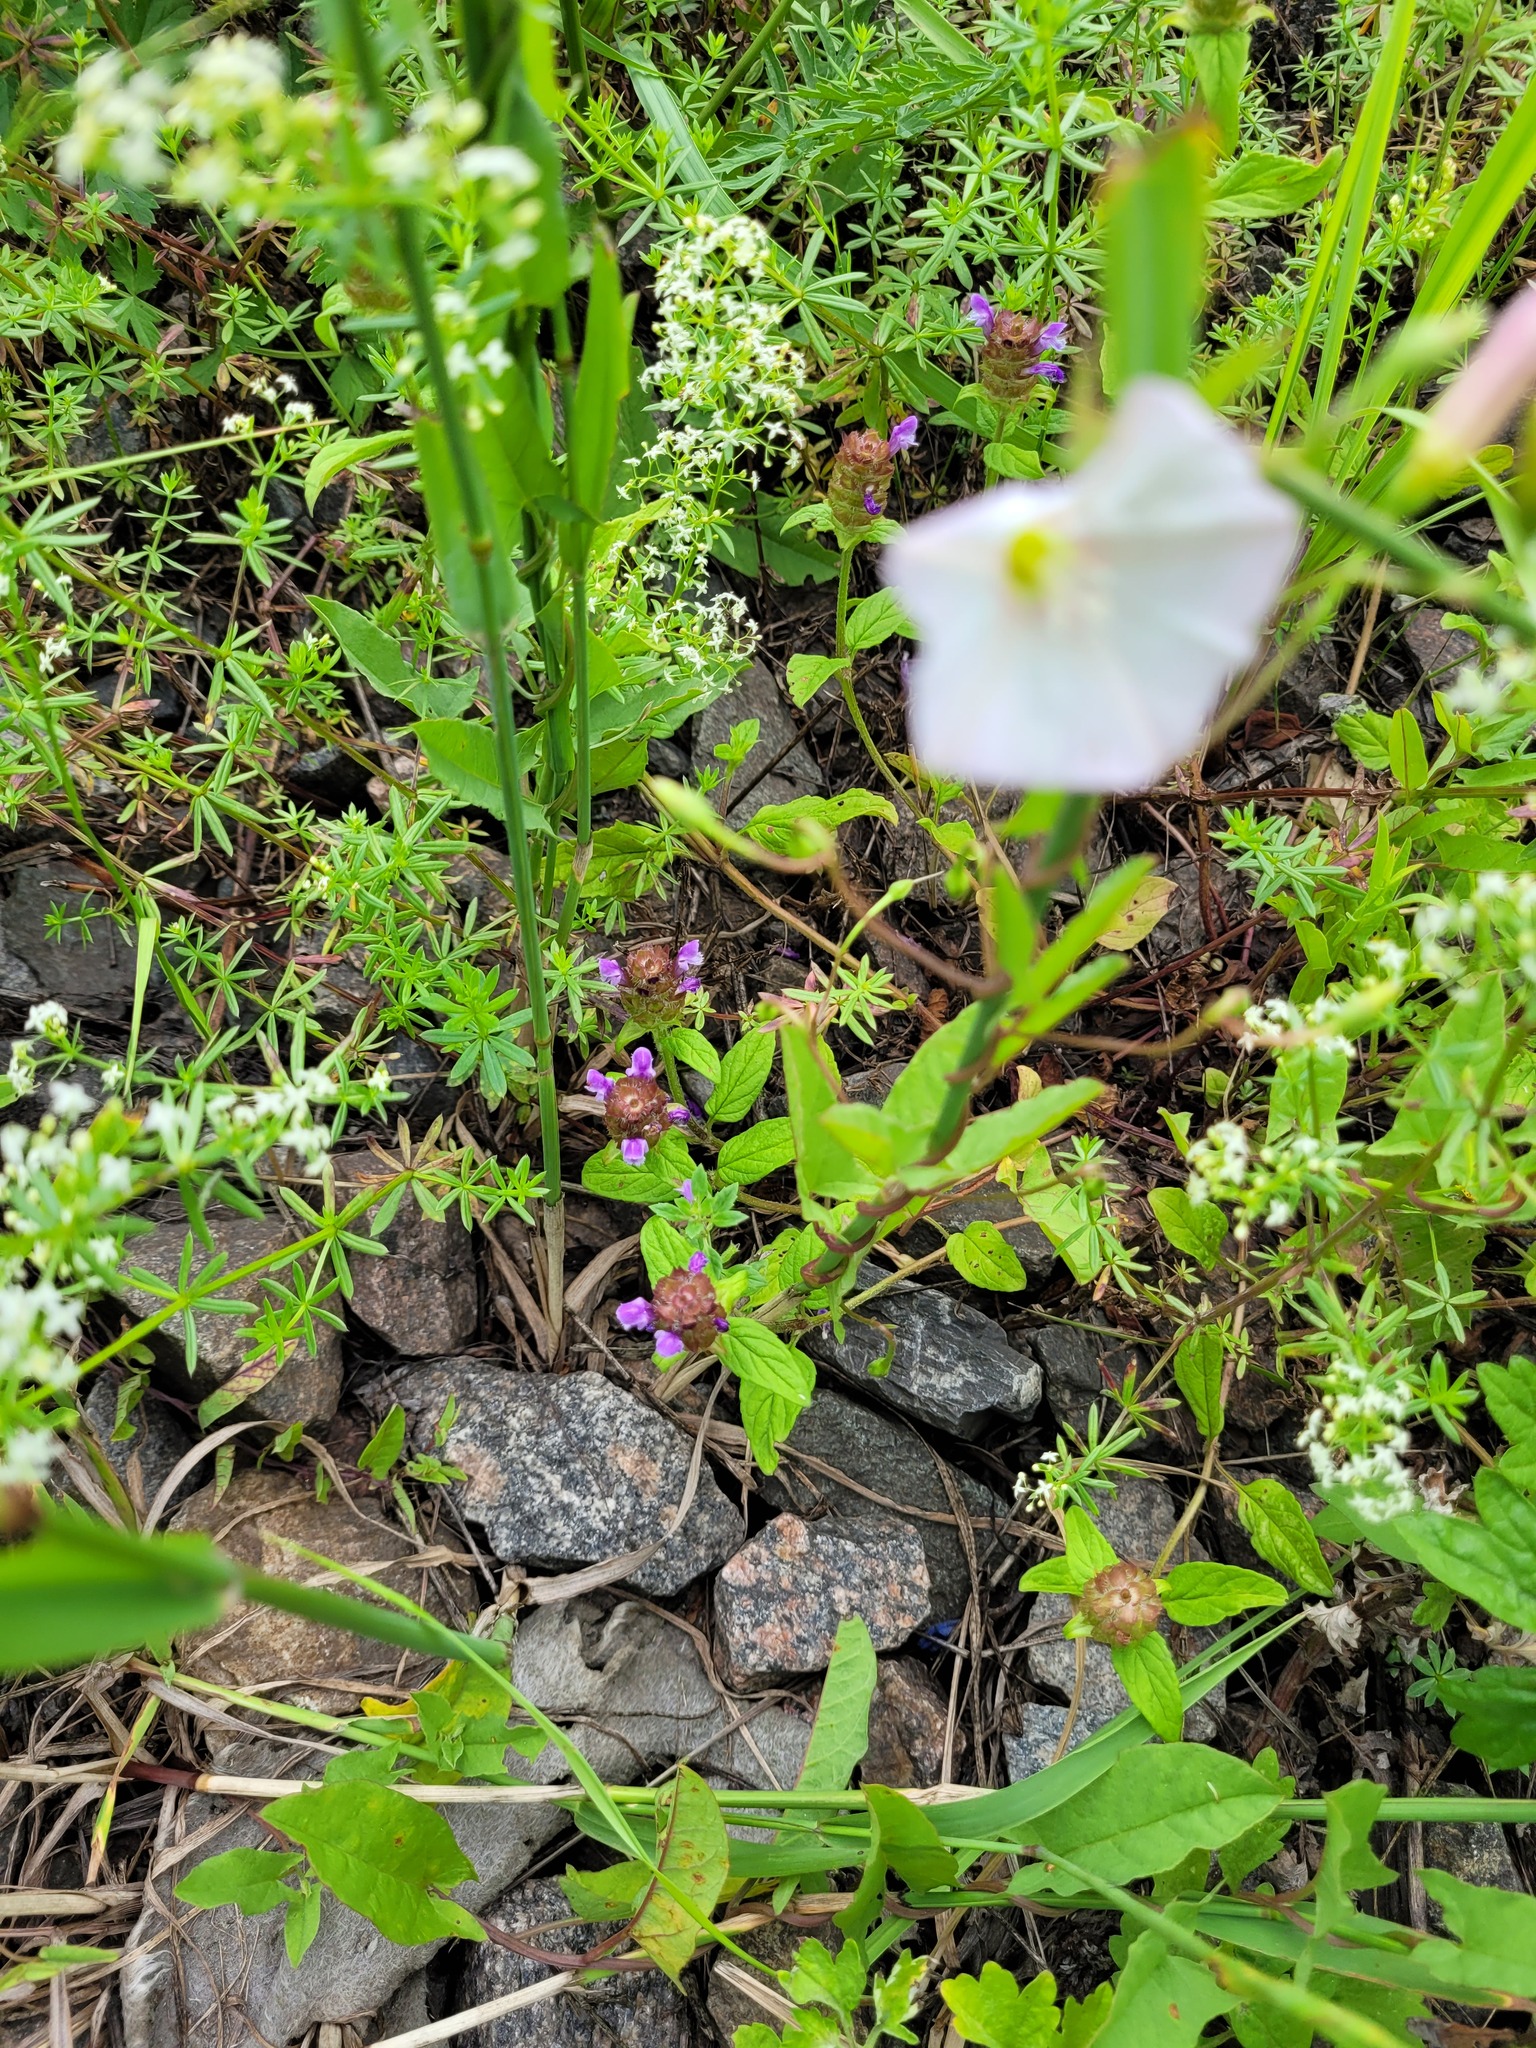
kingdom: Plantae
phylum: Tracheophyta
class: Magnoliopsida
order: Lamiales
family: Lamiaceae
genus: Prunella
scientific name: Prunella vulgaris
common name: Heal-all
